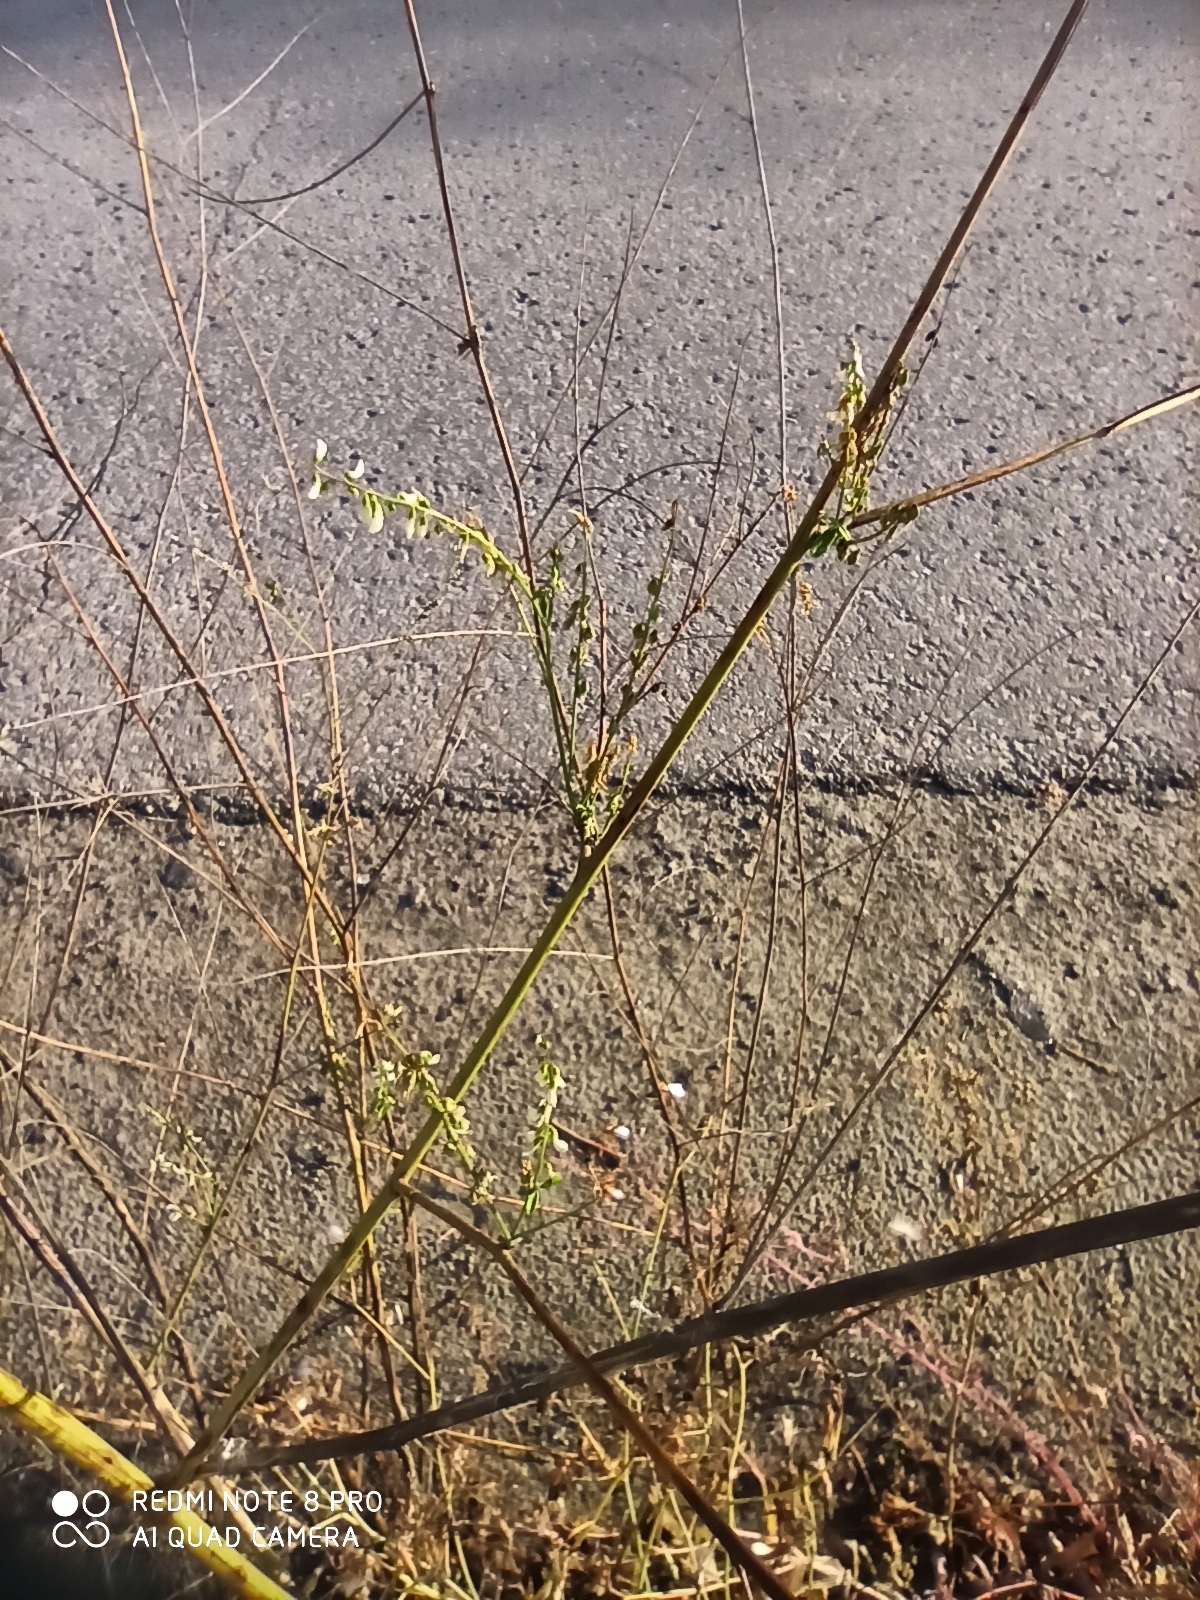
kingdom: Plantae
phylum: Tracheophyta
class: Magnoliopsida
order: Fabales
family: Fabaceae
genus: Melilotus
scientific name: Melilotus albus
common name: White melilot
